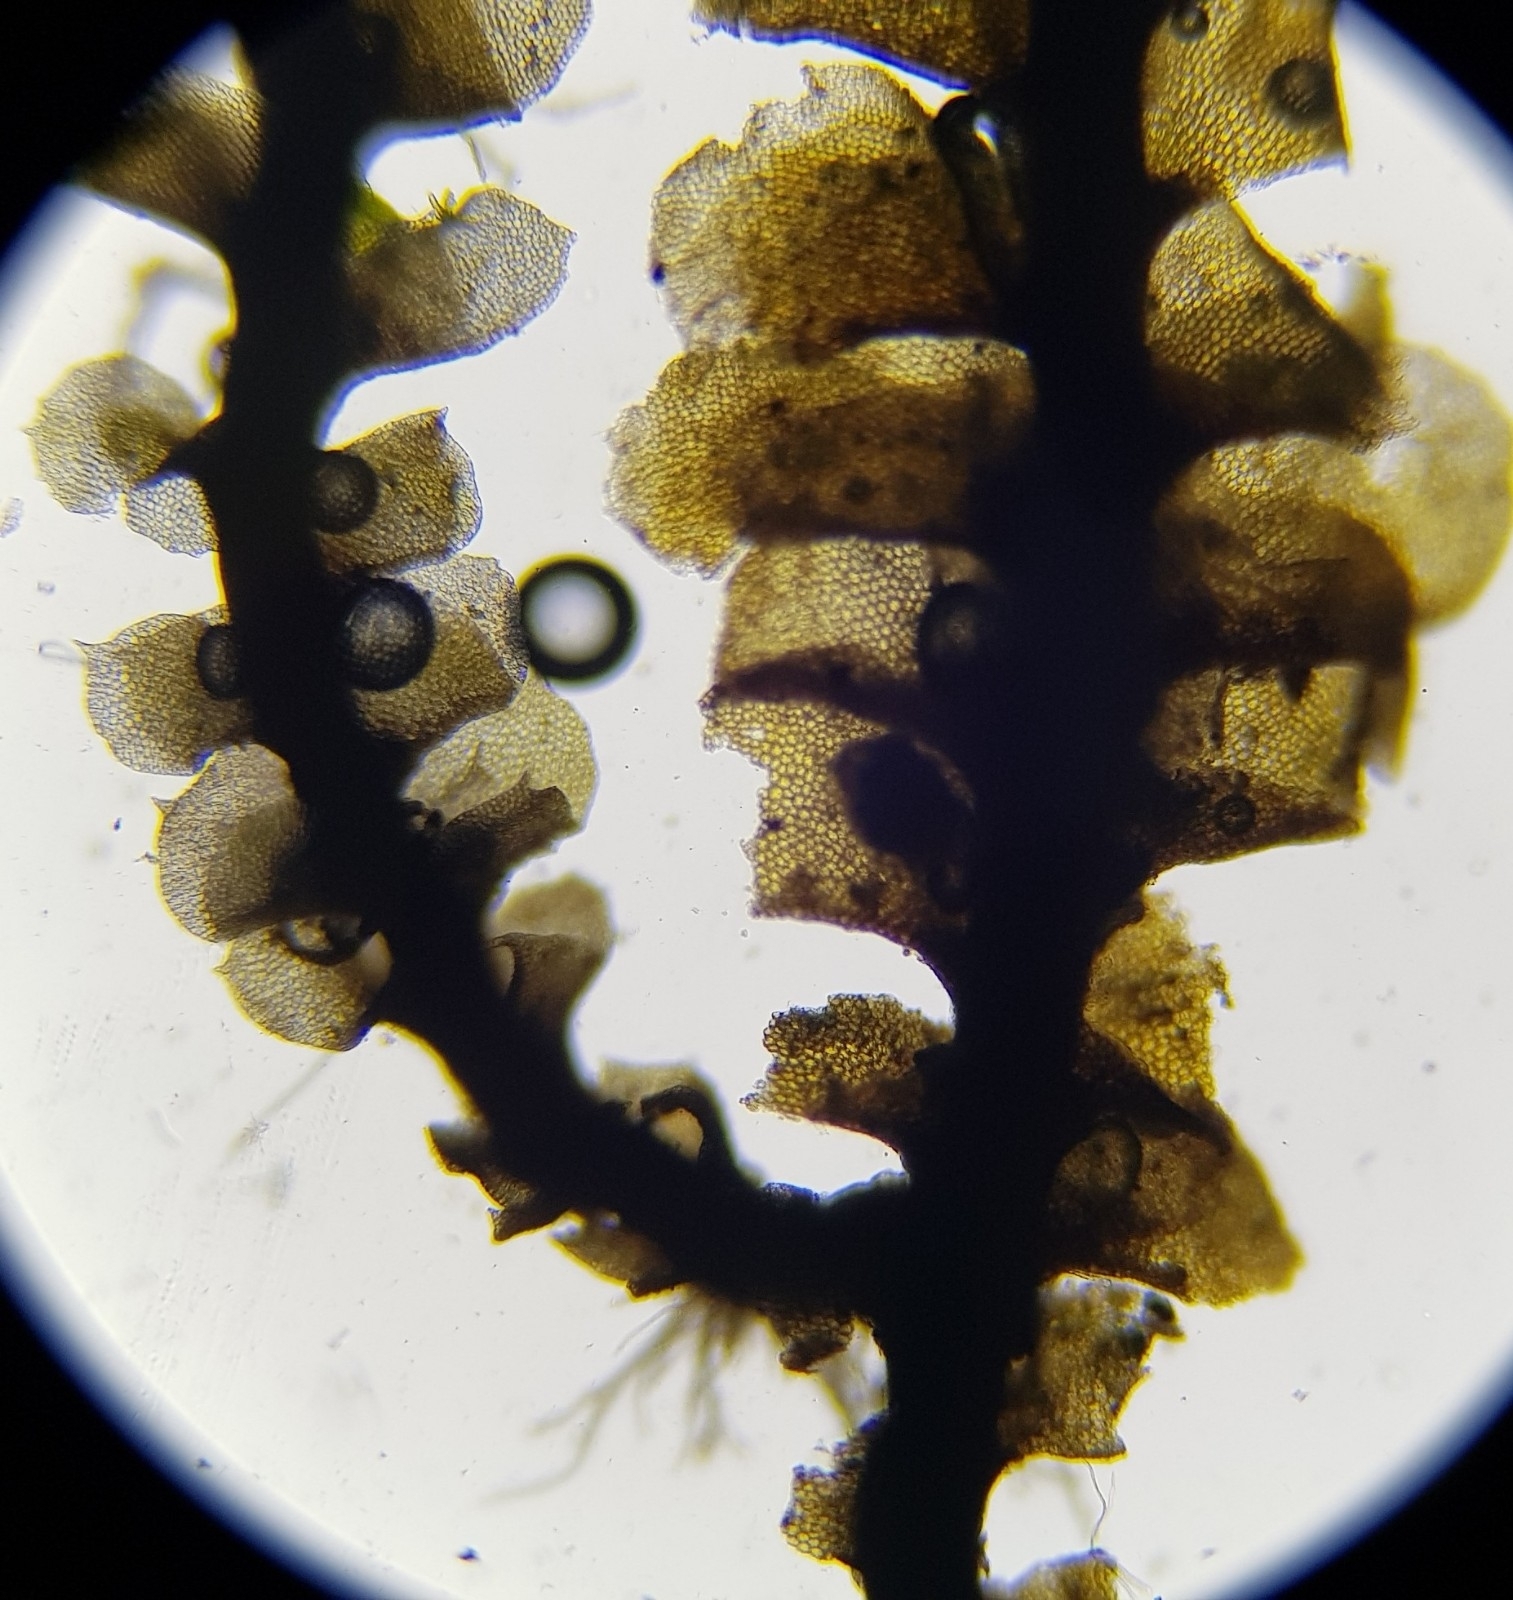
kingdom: Plantae
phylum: Marchantiophyta
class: Jungermanniopsida
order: Jungermanniales
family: Scapaniaceae
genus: Scapania
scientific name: Scapania aspera
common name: Rough earwort
